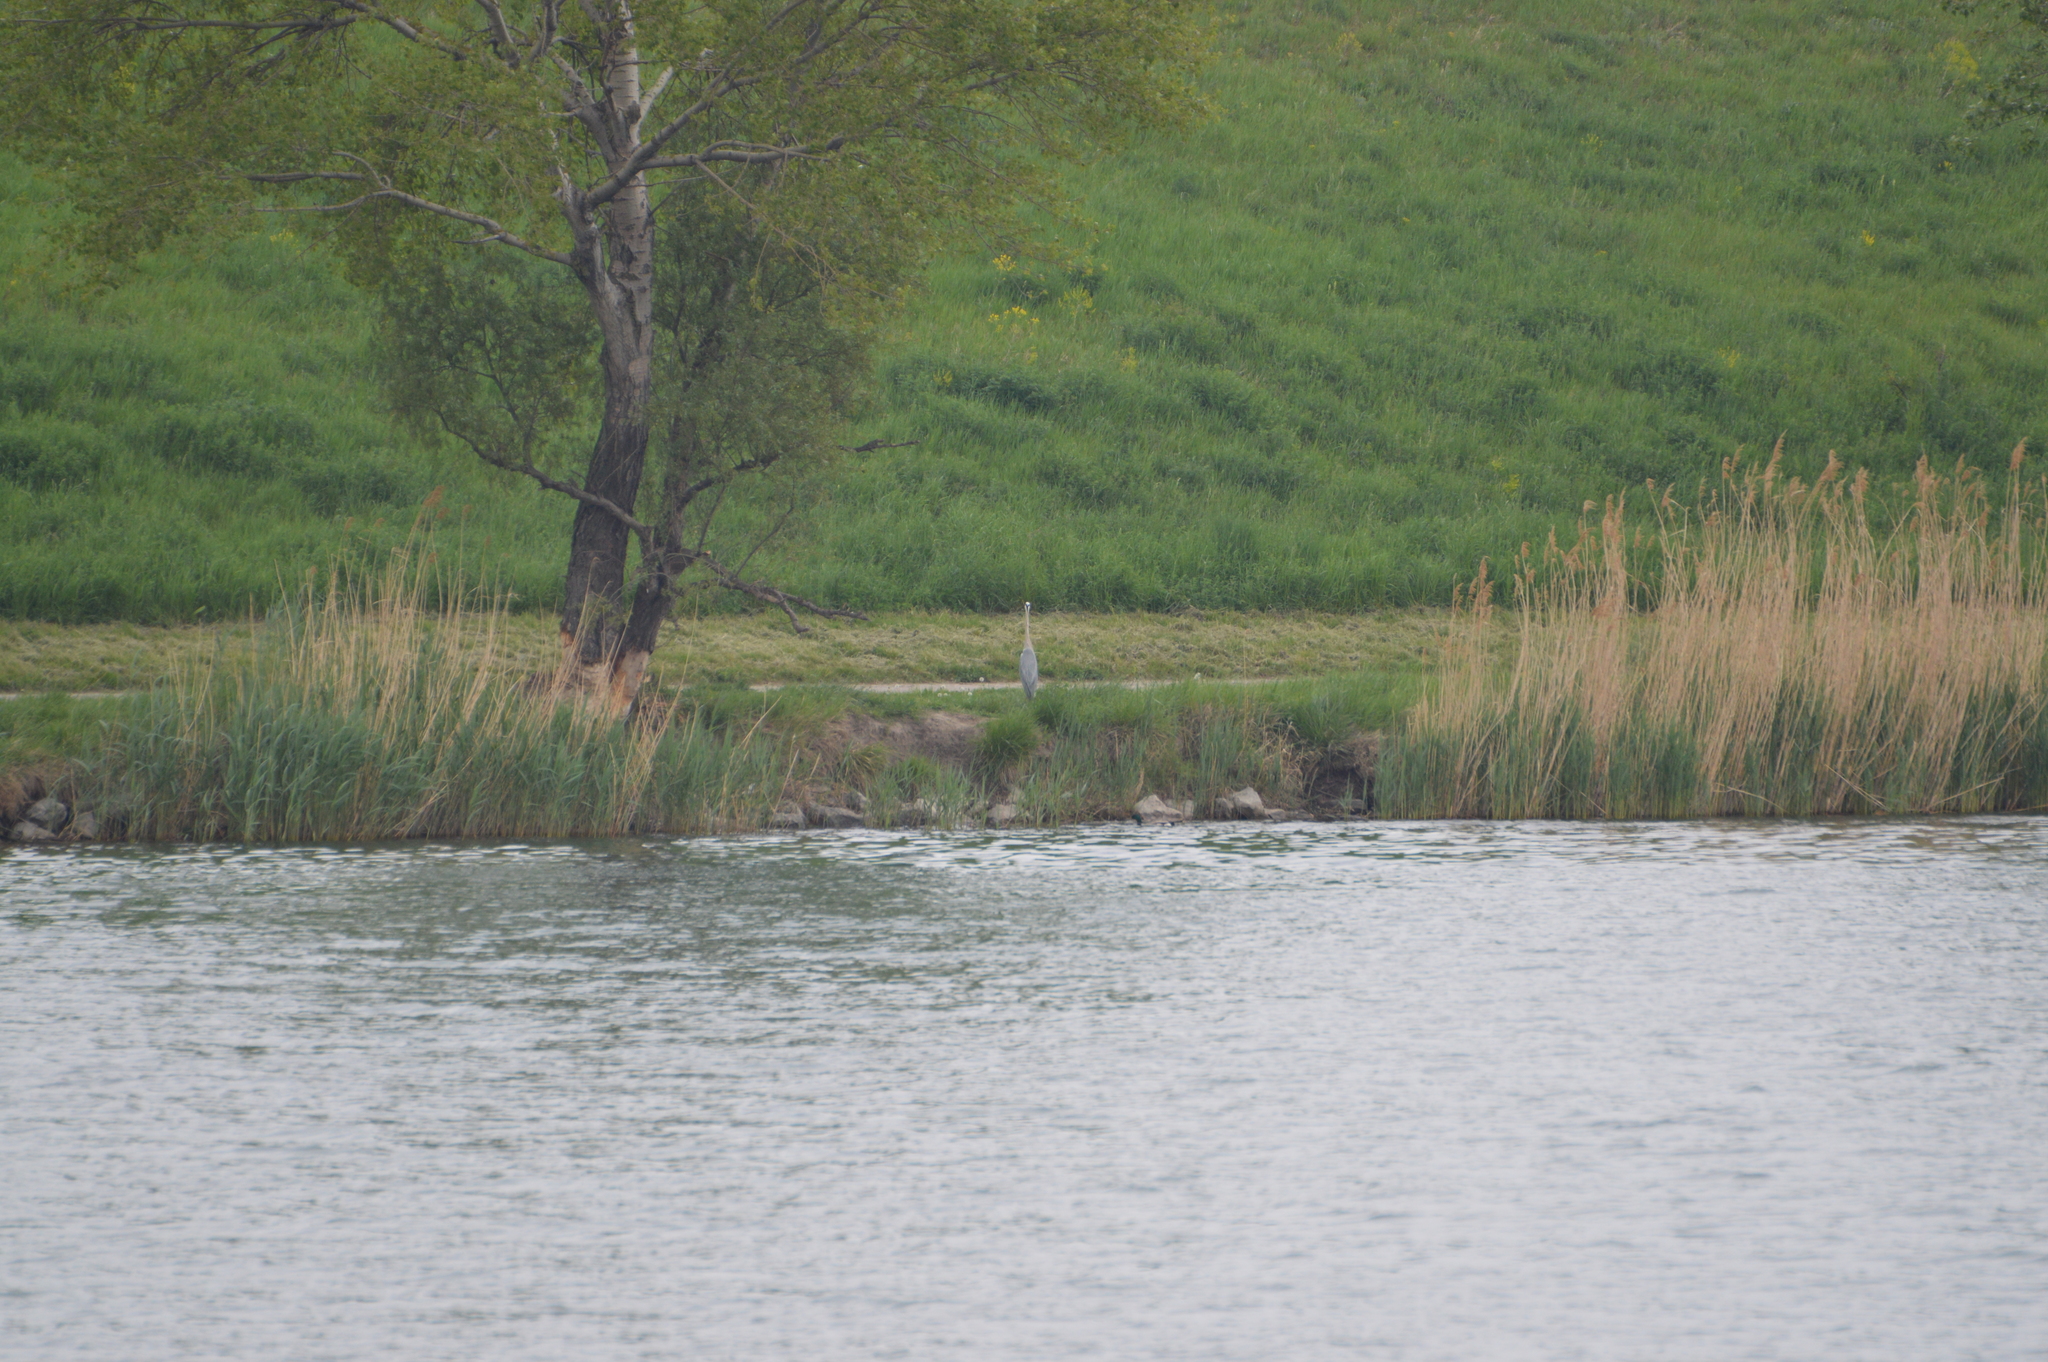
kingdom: Animalia
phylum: Chordata
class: Aves
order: Pelecaniformes
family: Ardeidae
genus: Ardea
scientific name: Ardea cinerea
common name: Grey heron
